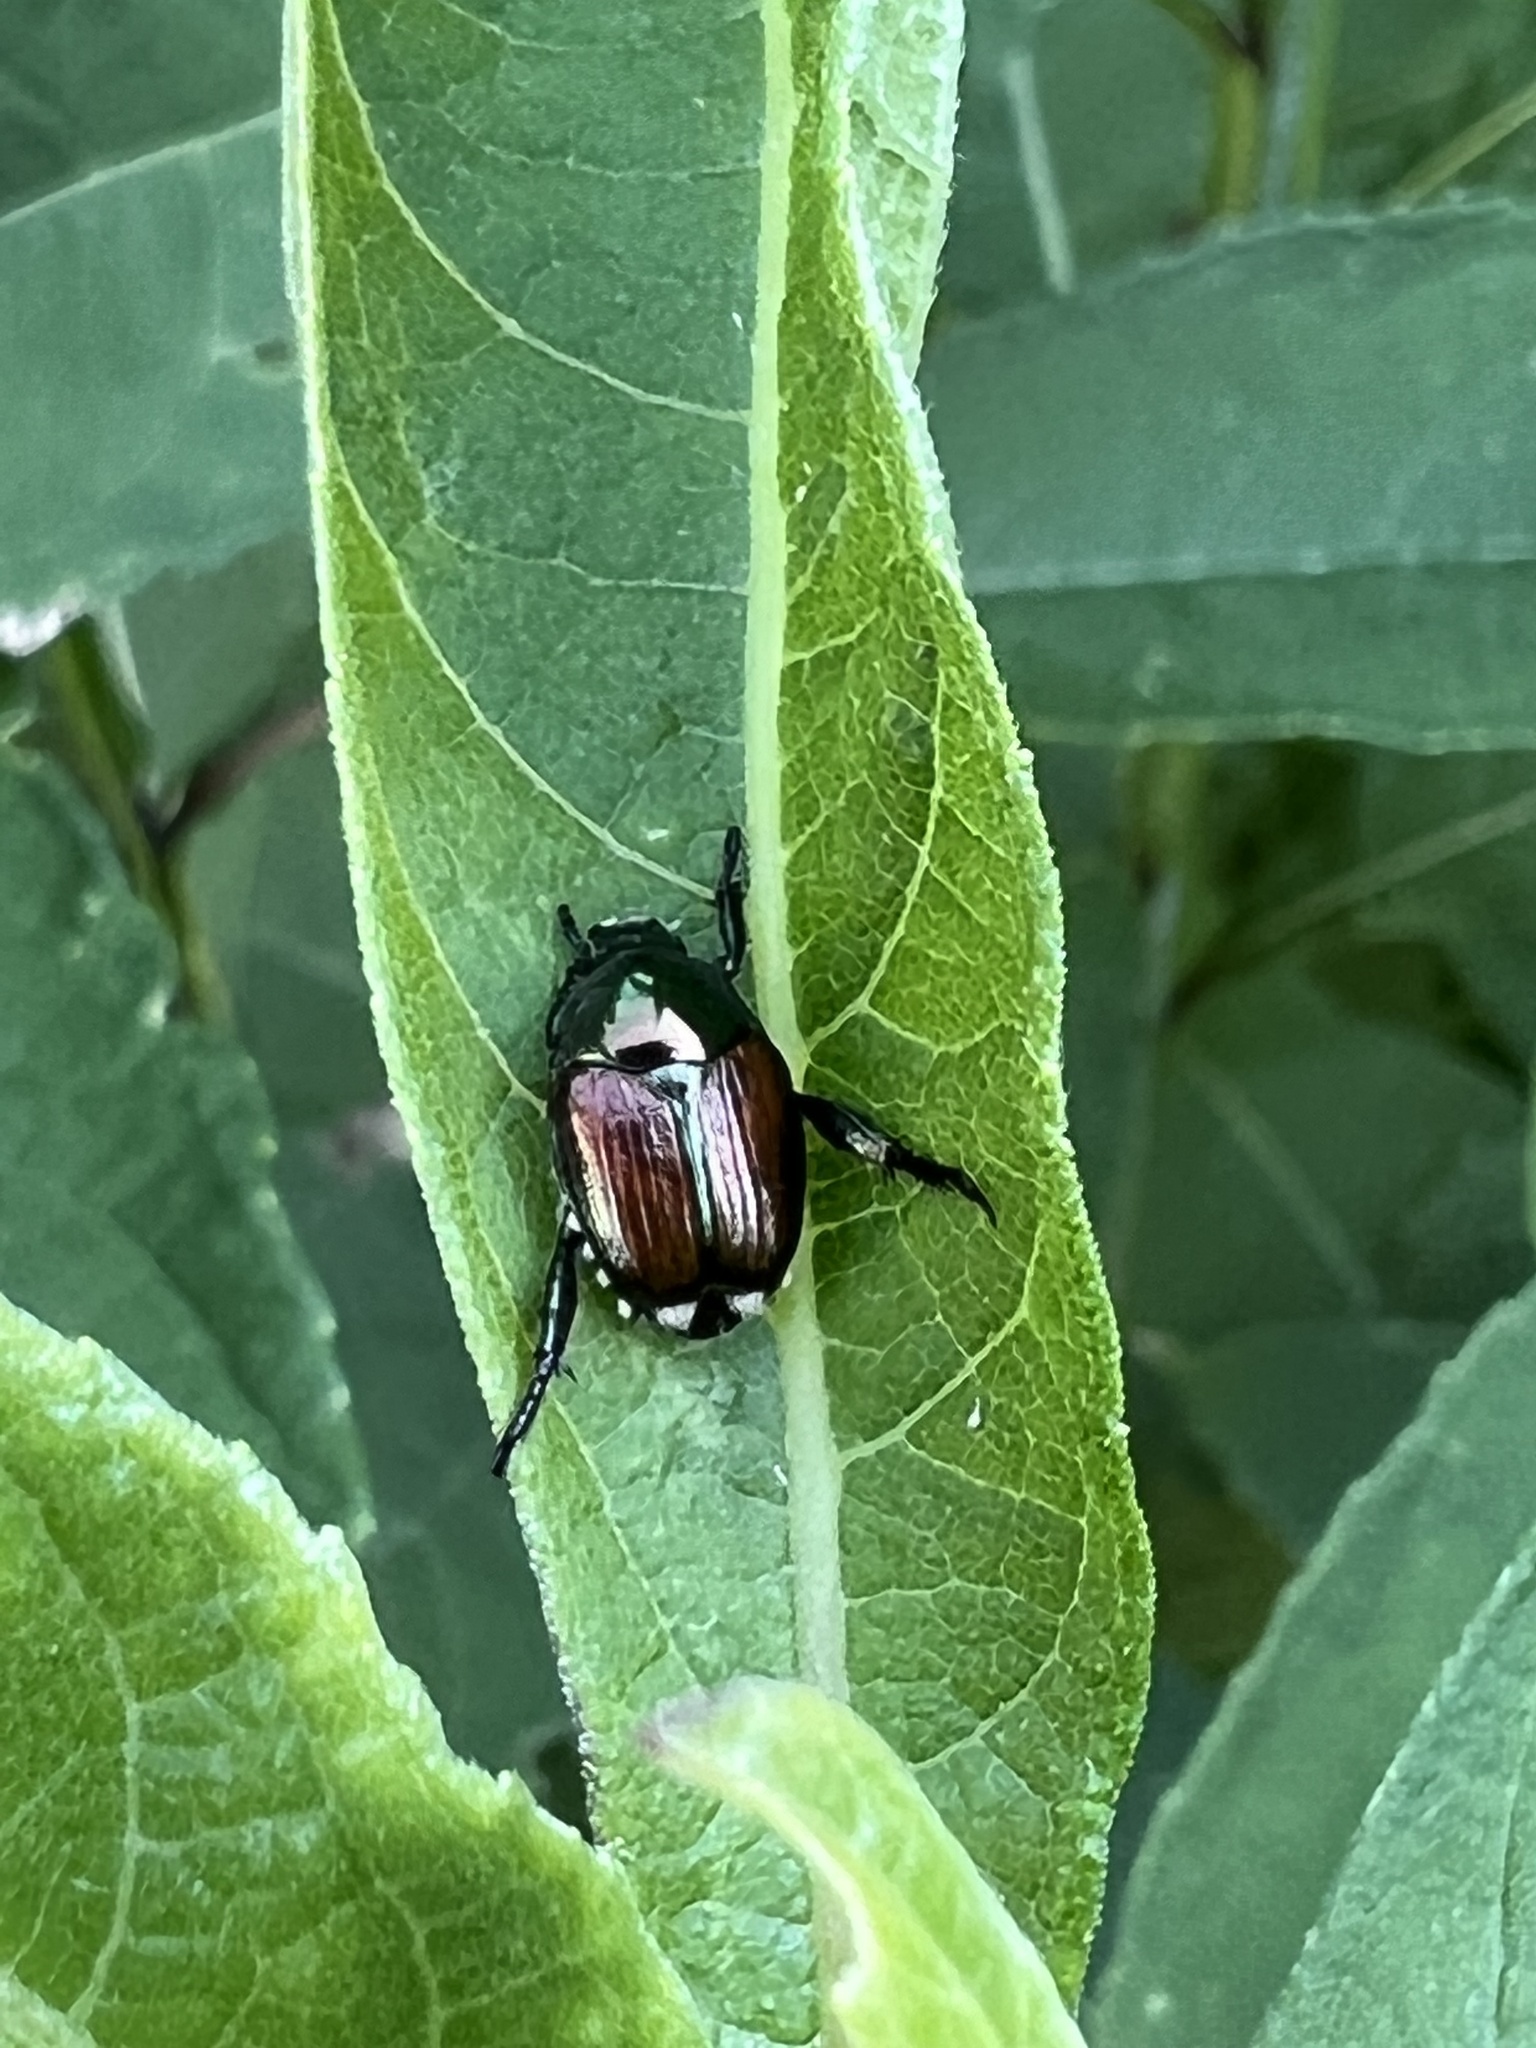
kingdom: Animalia
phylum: Arthropoda
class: Insecta
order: Coleoptera
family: Scarabaeidae
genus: Popillia
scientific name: Popillia japonica
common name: Japanese beetle
